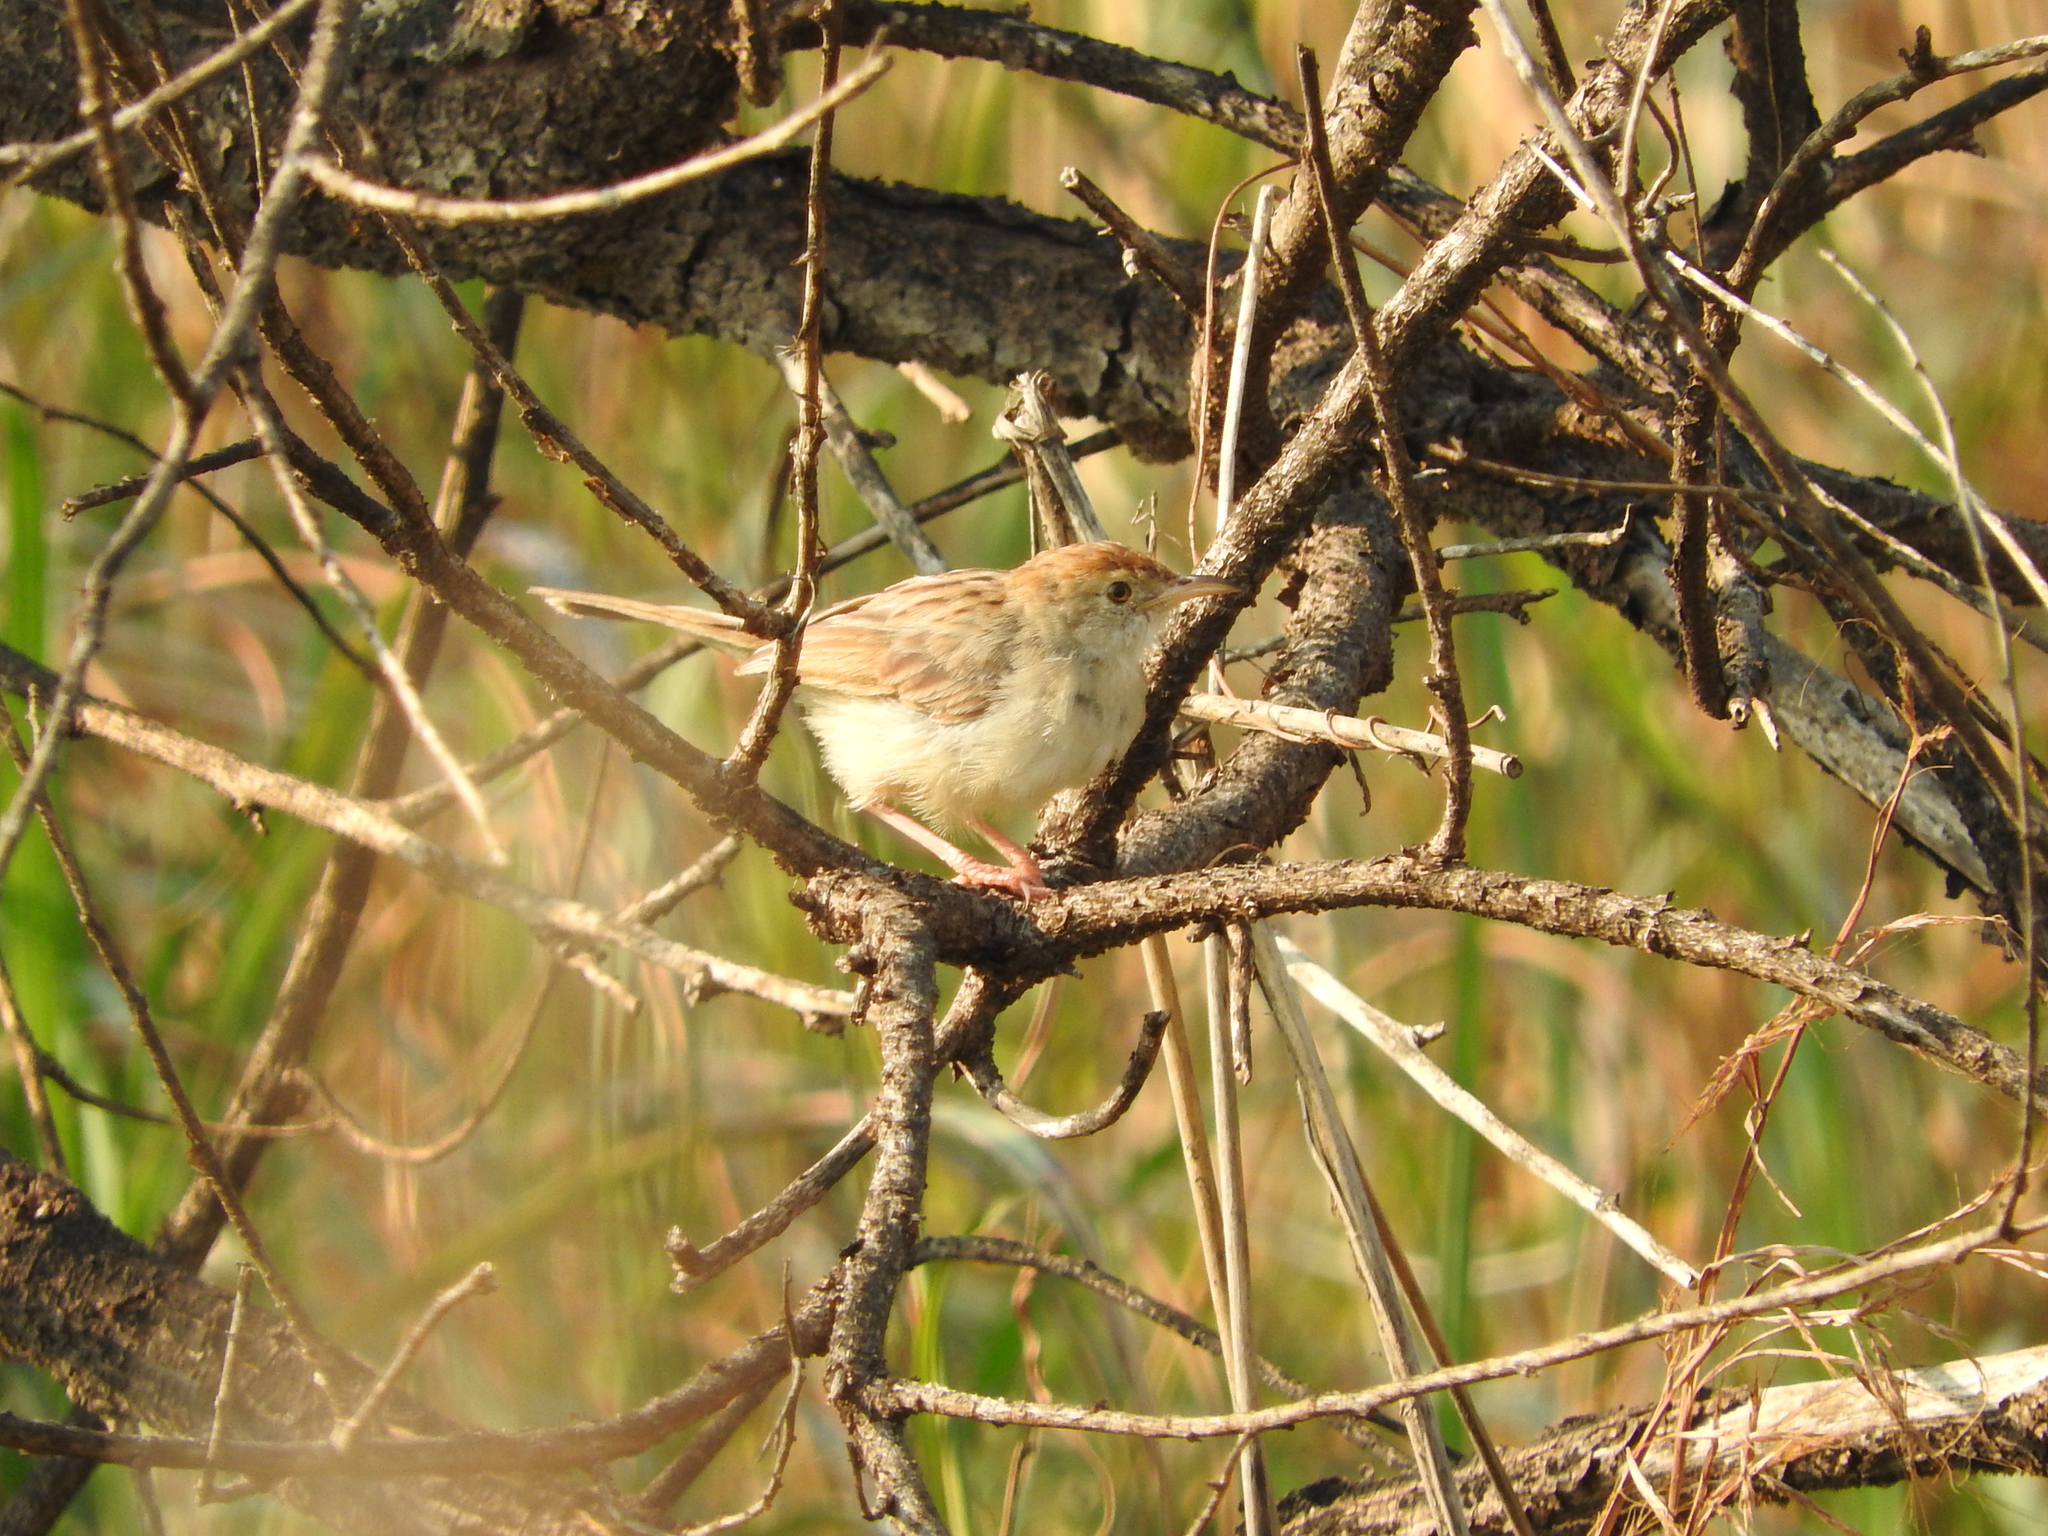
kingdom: Animalia
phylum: Chordata
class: Aves
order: Passeriformes
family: Cisticolidae
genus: Cisticola
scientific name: Cisticola chiniana
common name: Rattling cisticola
